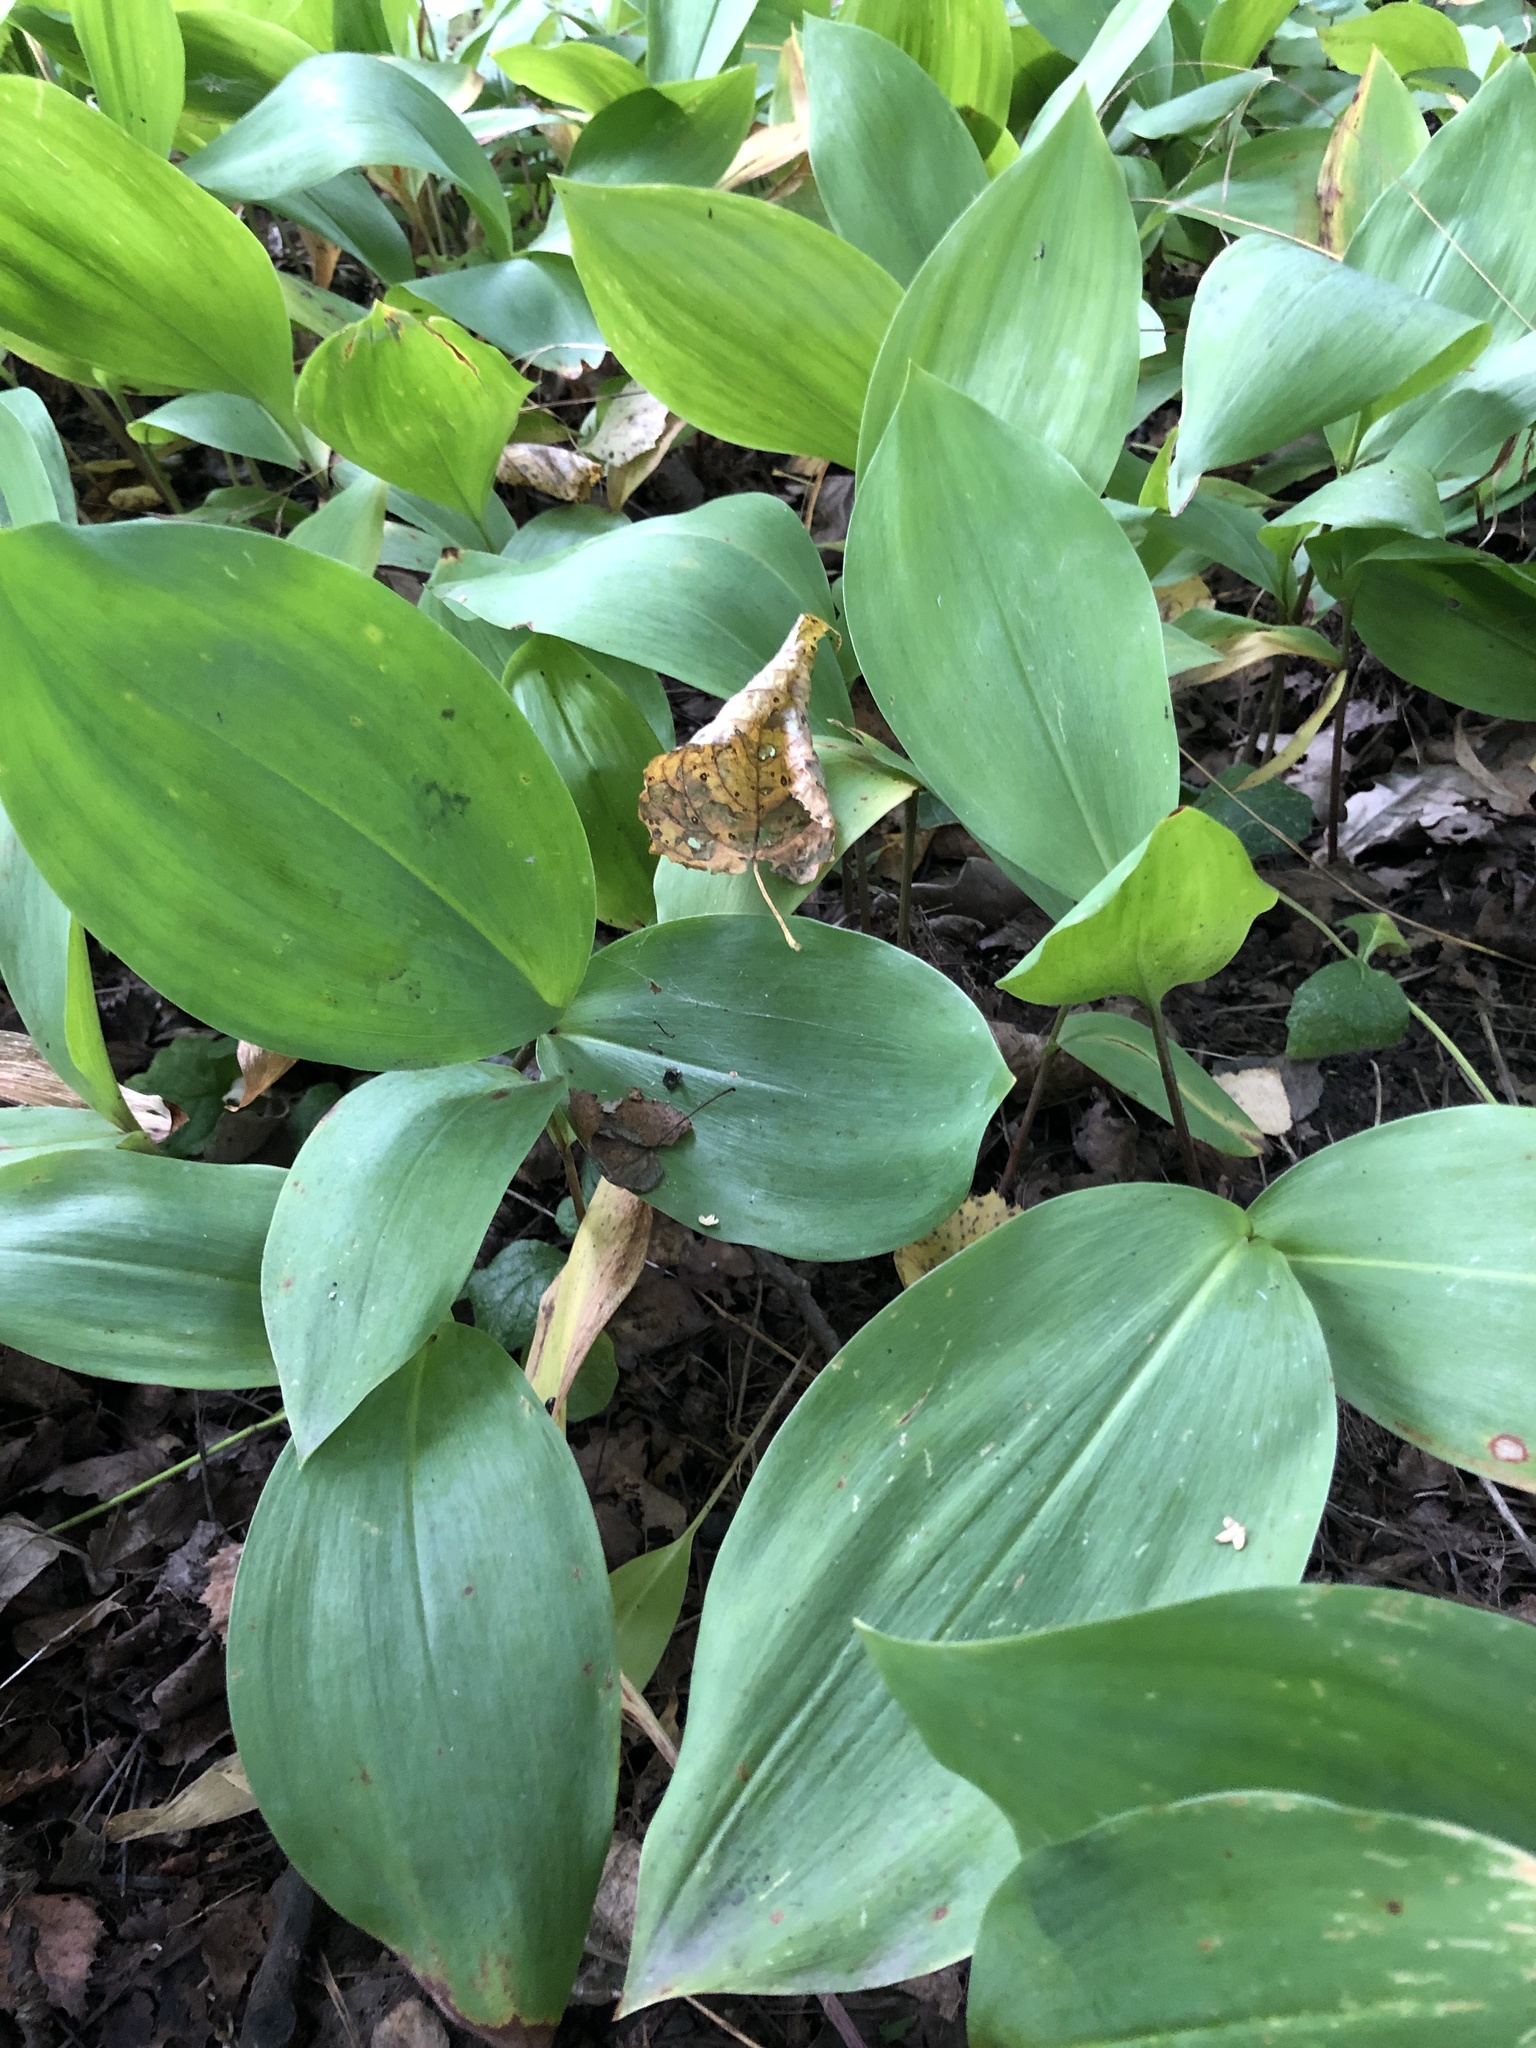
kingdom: Plantae
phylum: Tracheophyta
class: Liliopsida
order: Asparagales
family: Asparagaceae
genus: Convallaria
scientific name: Convallaria majalis
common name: Lily-of-the-valley
